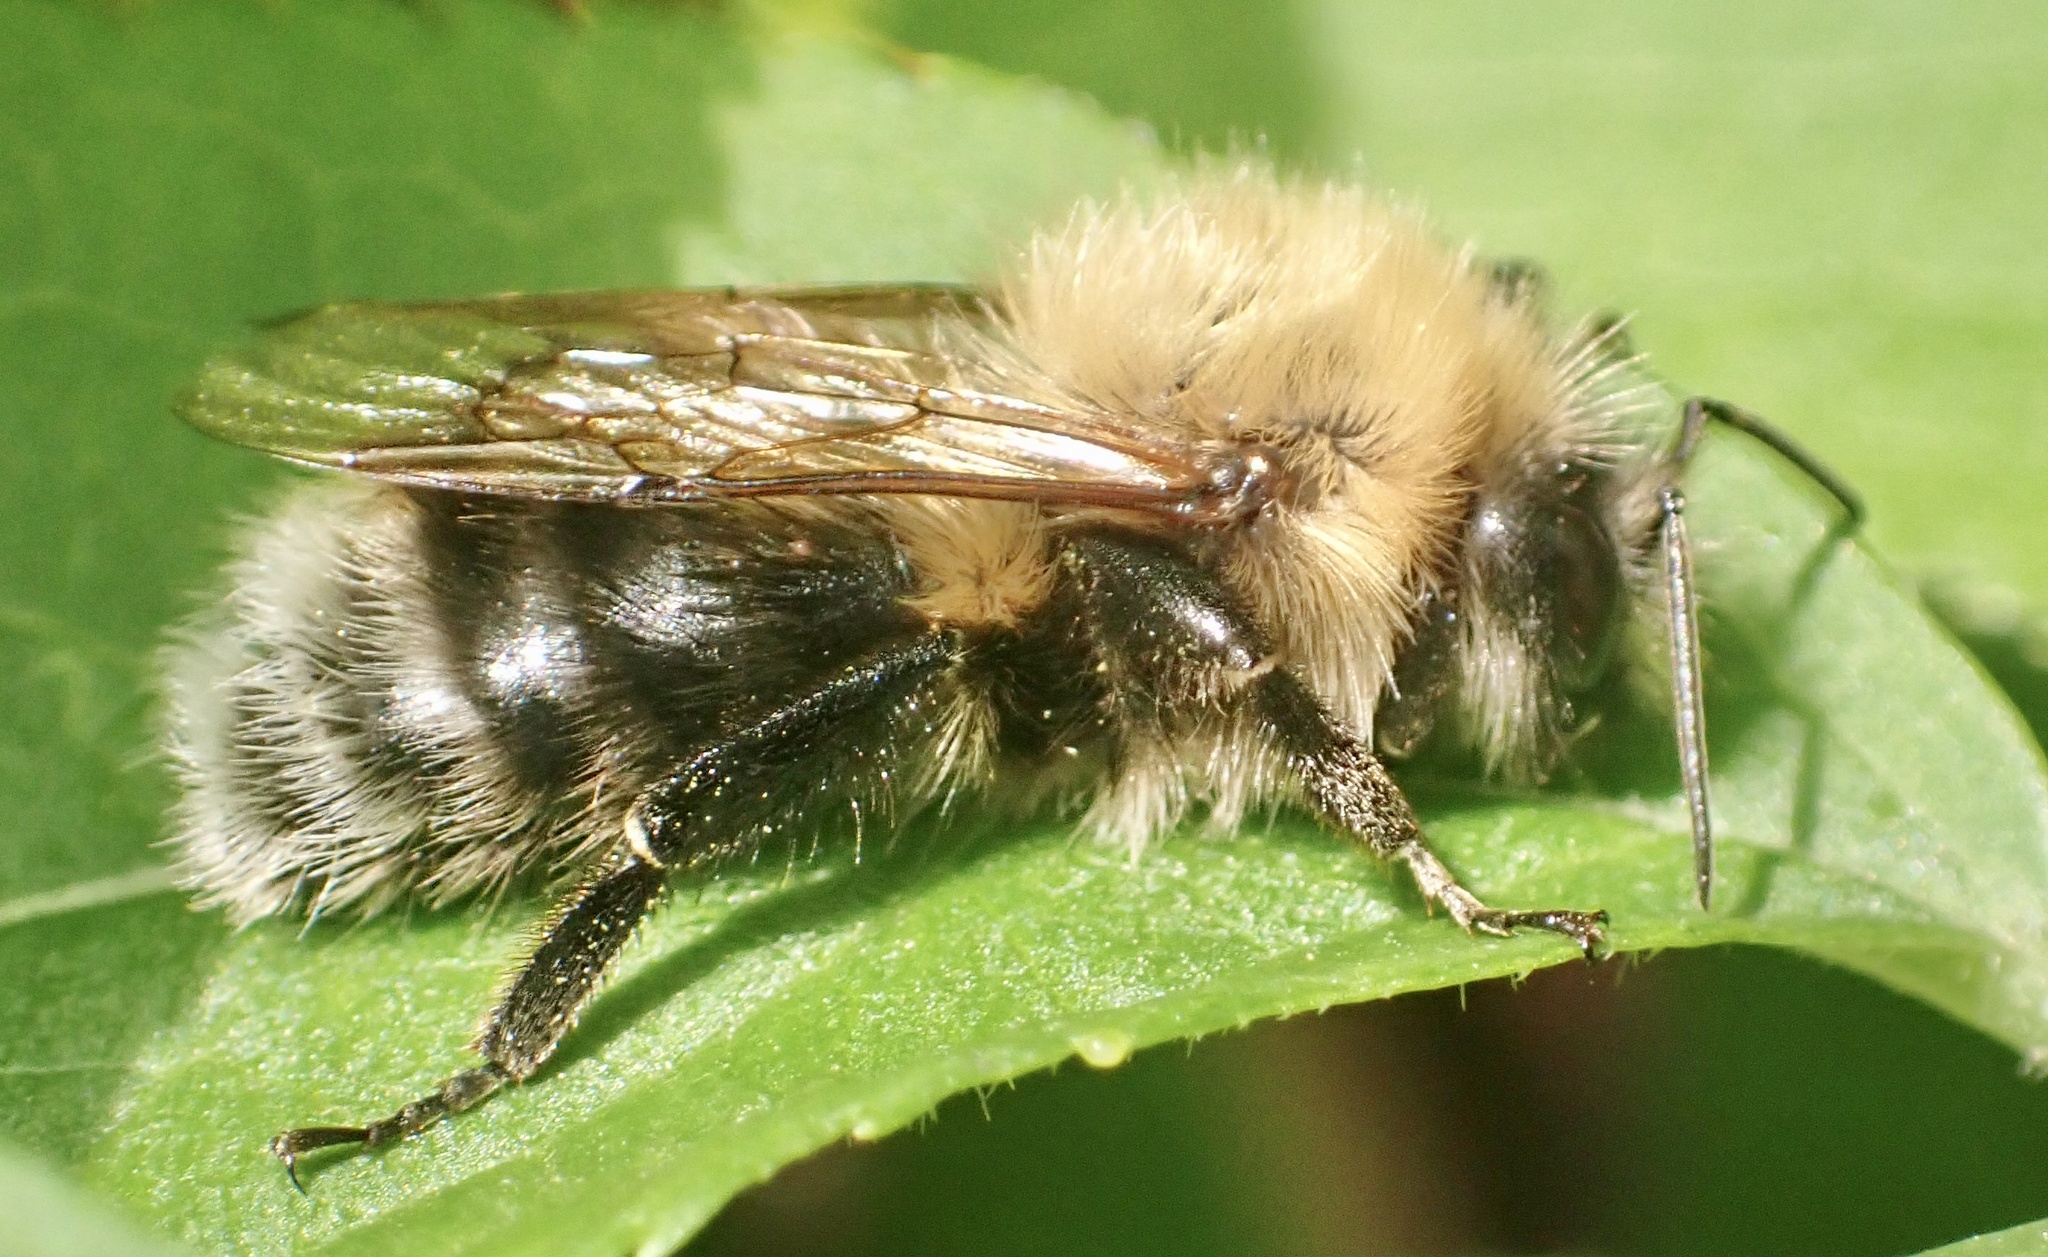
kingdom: Animalia
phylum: Arthropoda
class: Insecta
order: Hymenoptera
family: Apidae
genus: Bombus
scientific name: Bombus hypnorum
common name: New garden bumblebee
